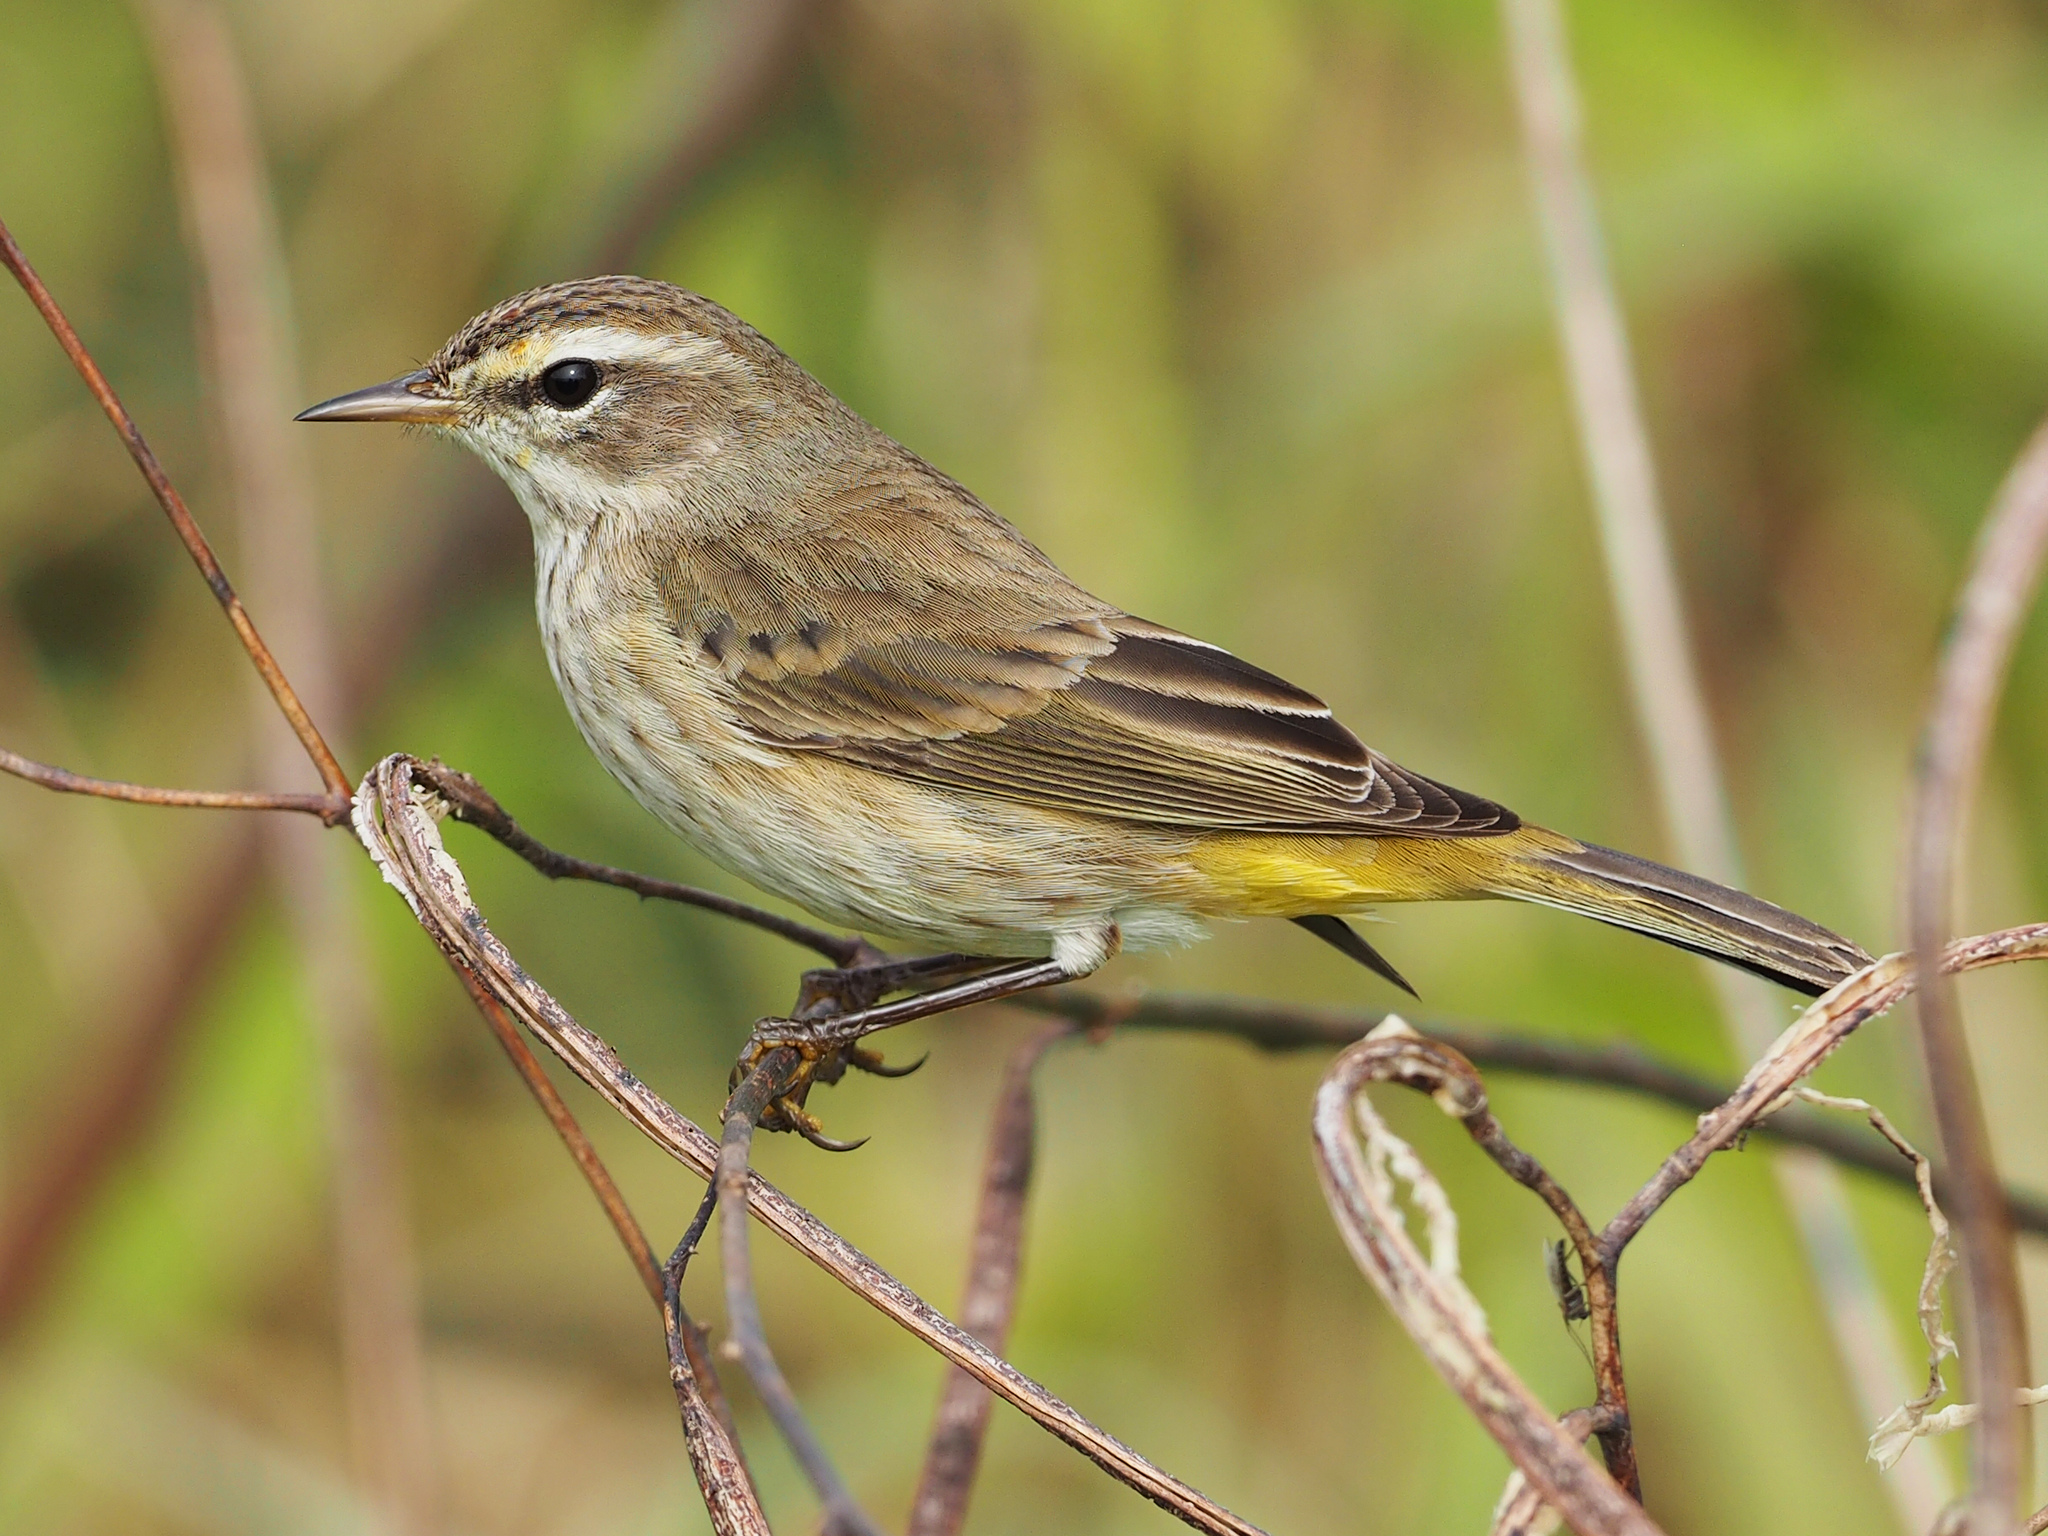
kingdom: Animalia
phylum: Chordata
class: Aves
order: Passeriformes
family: Parulidae
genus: Setophaga
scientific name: Setophaga palmarum
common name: Palm warbler
